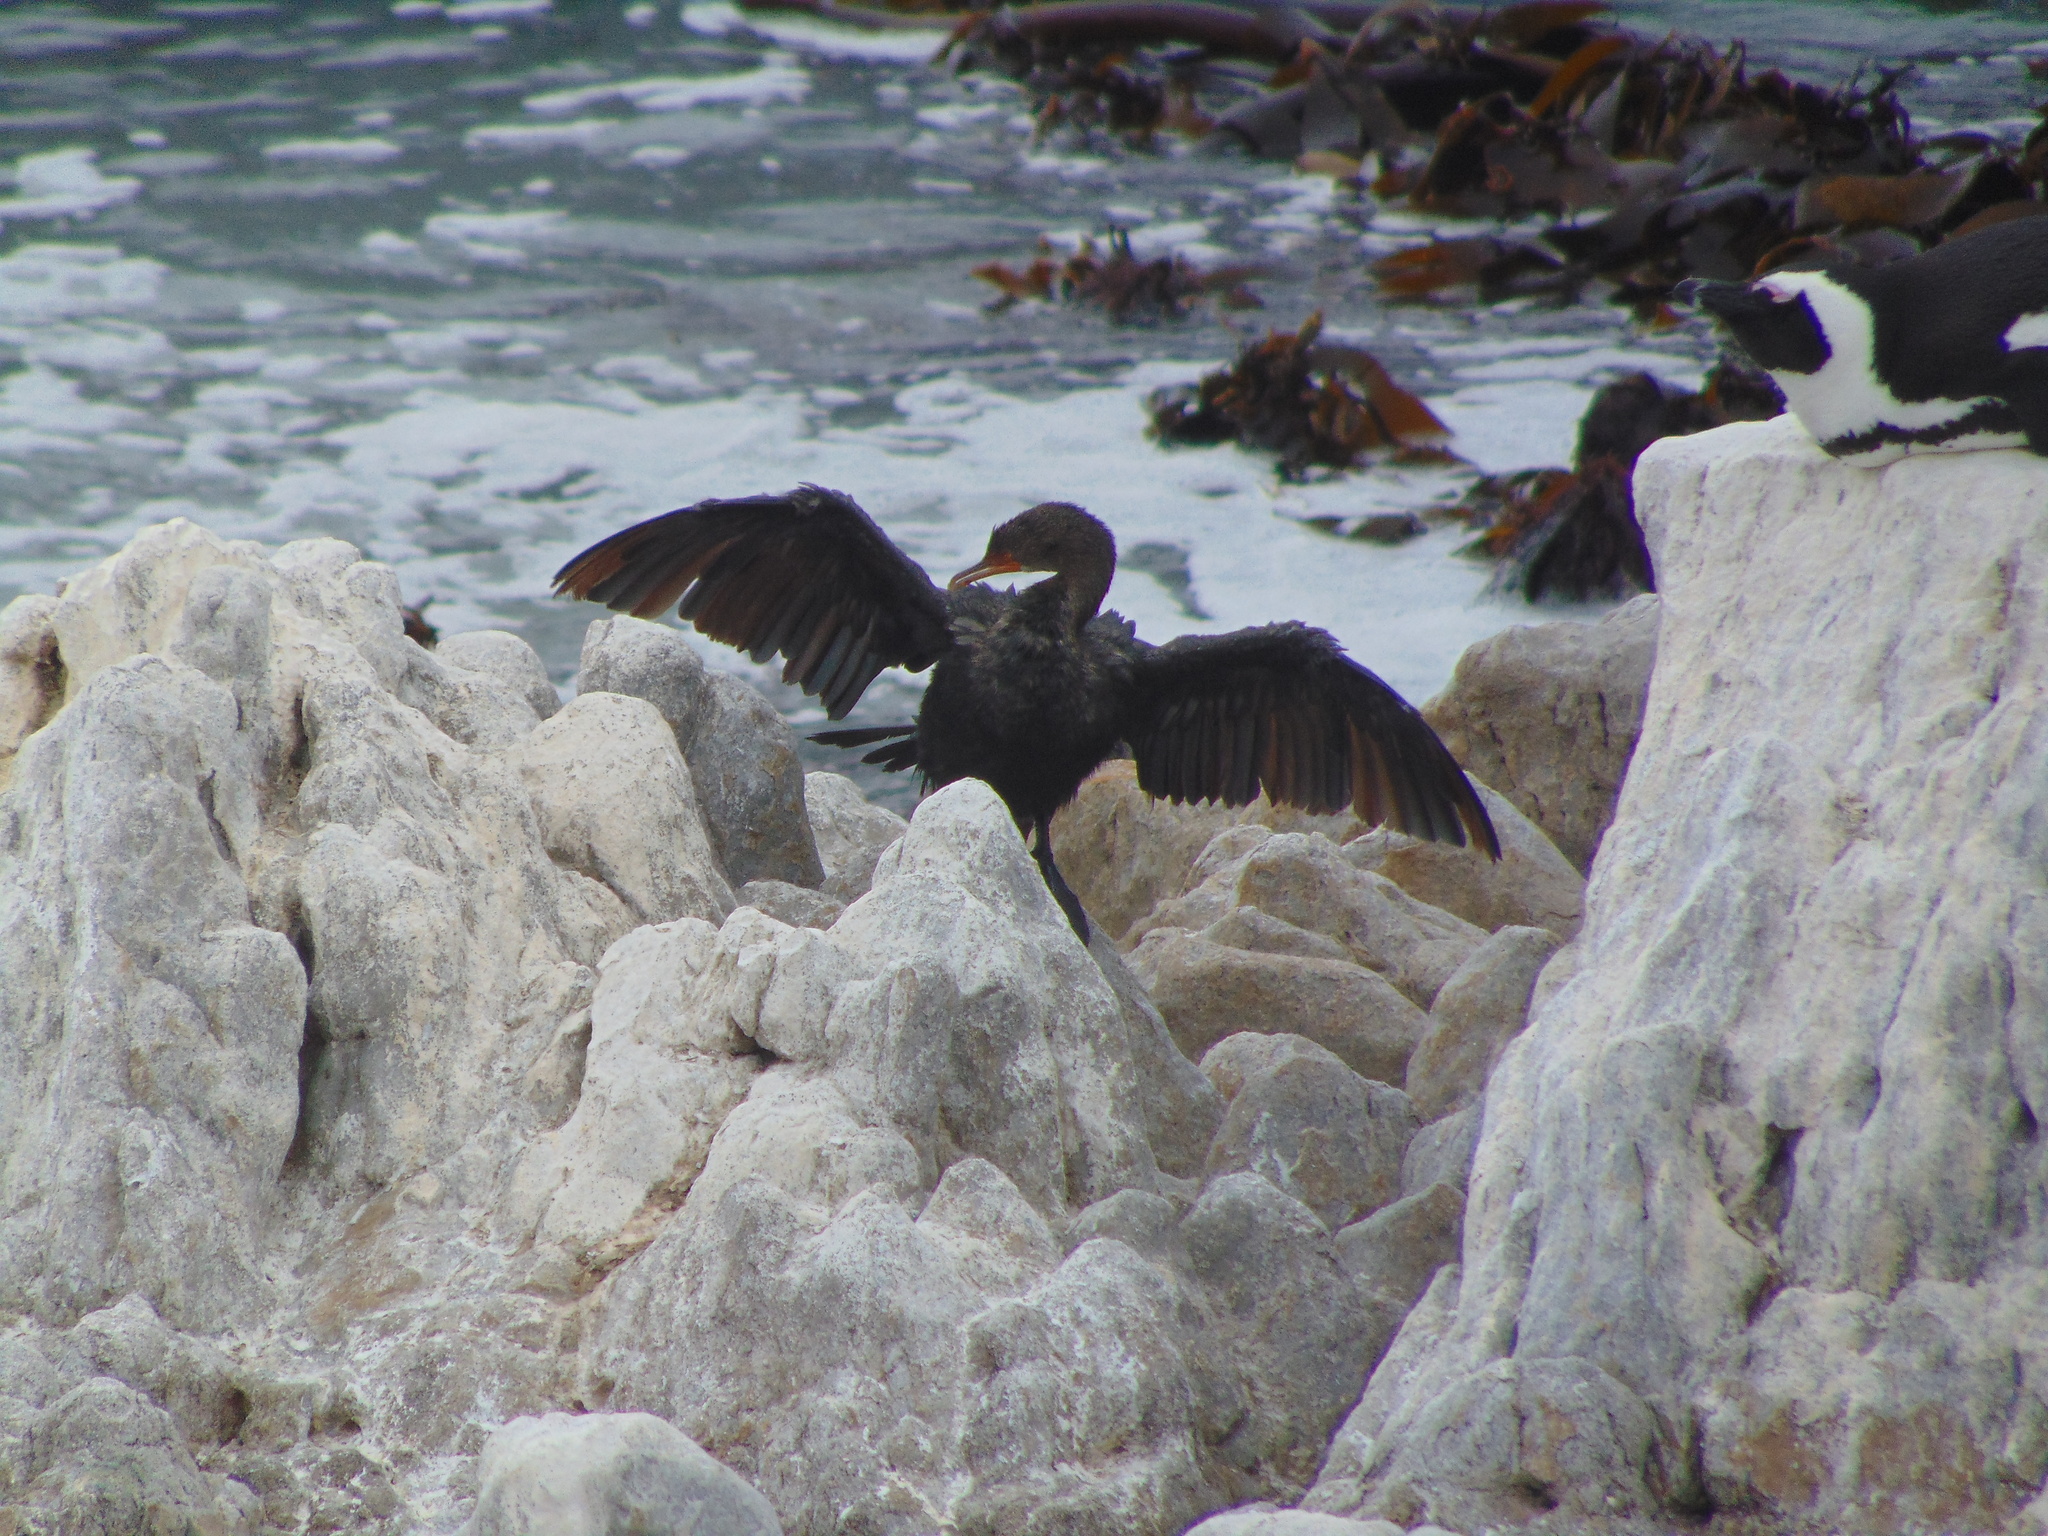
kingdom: Animalia
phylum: Chordata
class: Aves
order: Suliformes
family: Phalacrocoracidae
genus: Microcarbo
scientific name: Microcarbo coronatus
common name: Crowned cormorant
